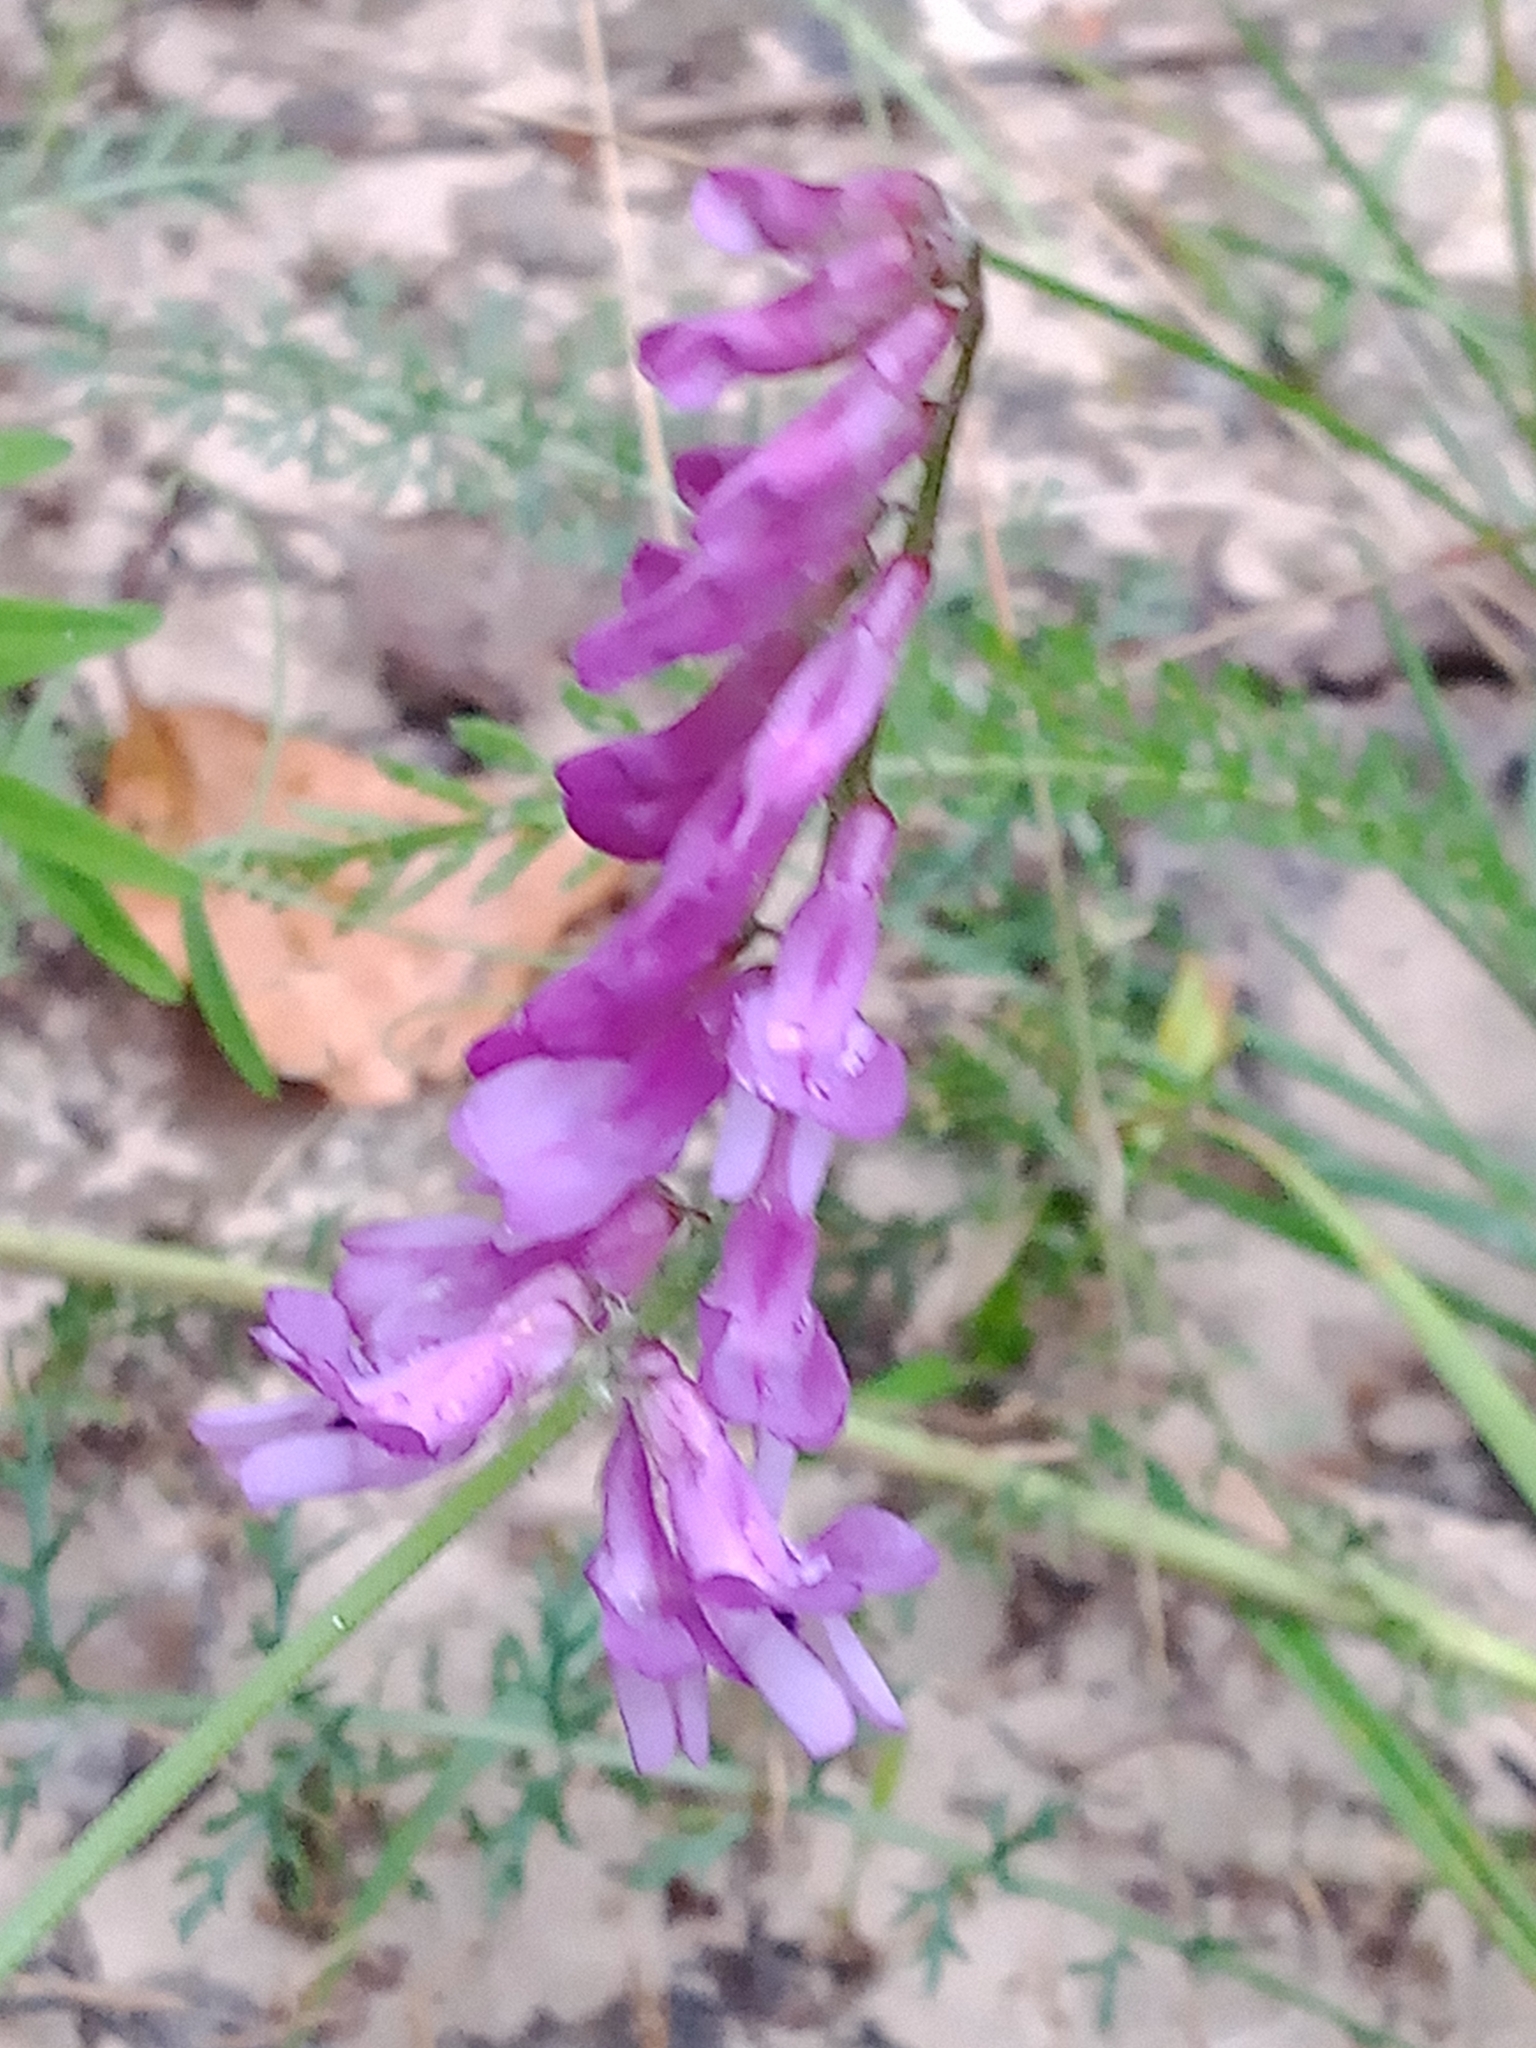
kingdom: Plantae
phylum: Tracheophyta
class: Magnoliopsida
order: Fabales
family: Fabaceae
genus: Vicia
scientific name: Vicia cracca
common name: Bird vetch
